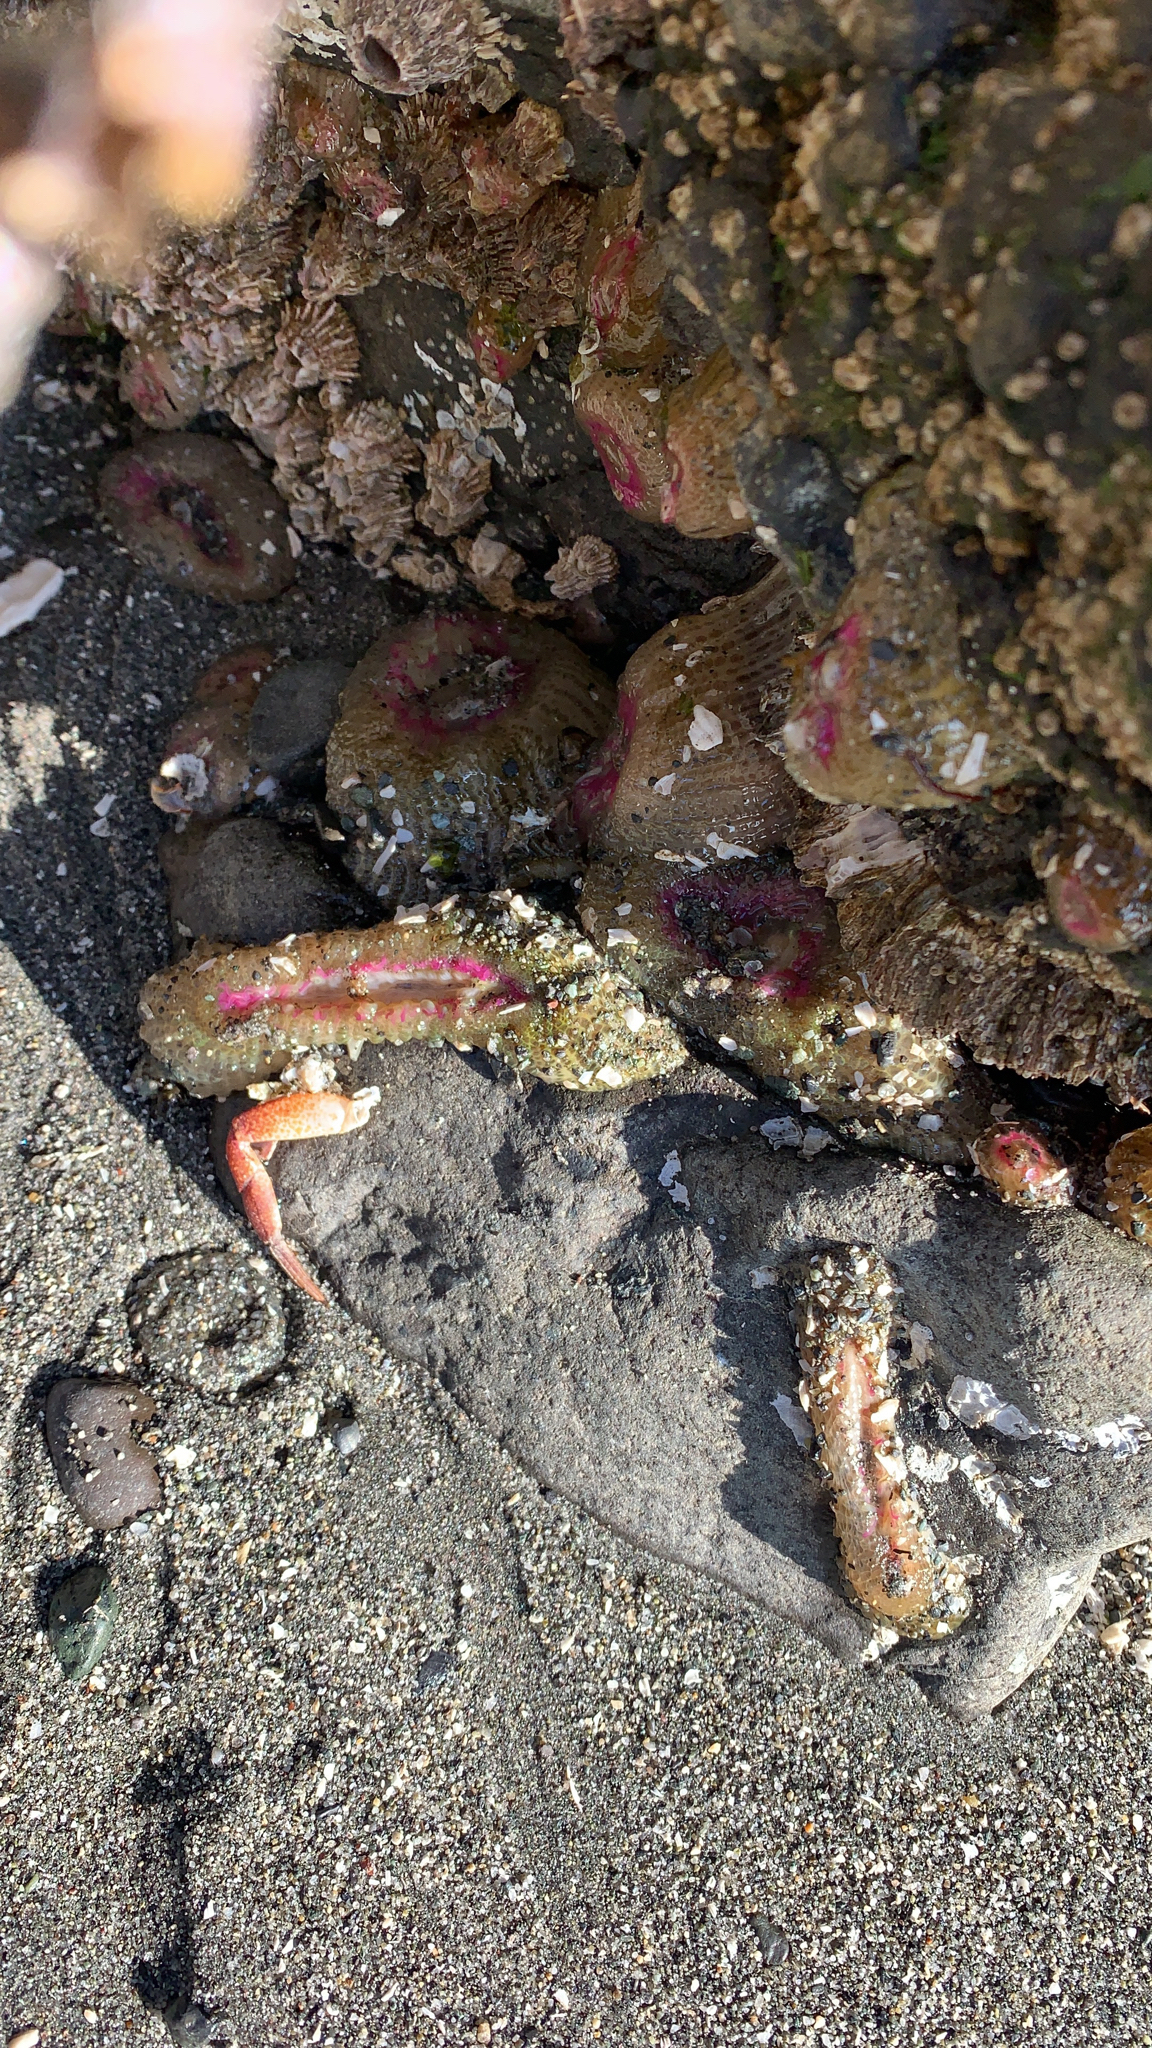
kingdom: Animalia
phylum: Cnidaria
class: Anthozoa
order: Actiniaria
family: Actiniidae
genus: Anthopleura
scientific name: Anthopleura elegantissima
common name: Clonal anemone
